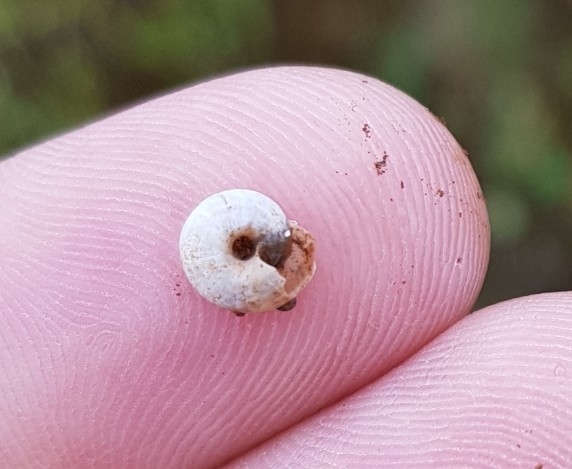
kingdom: Animalia
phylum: Mollusca
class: Gastropoda
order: Stylommatophora
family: Geomitridae
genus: Helicella
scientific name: Helicella itala
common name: Heath snail
